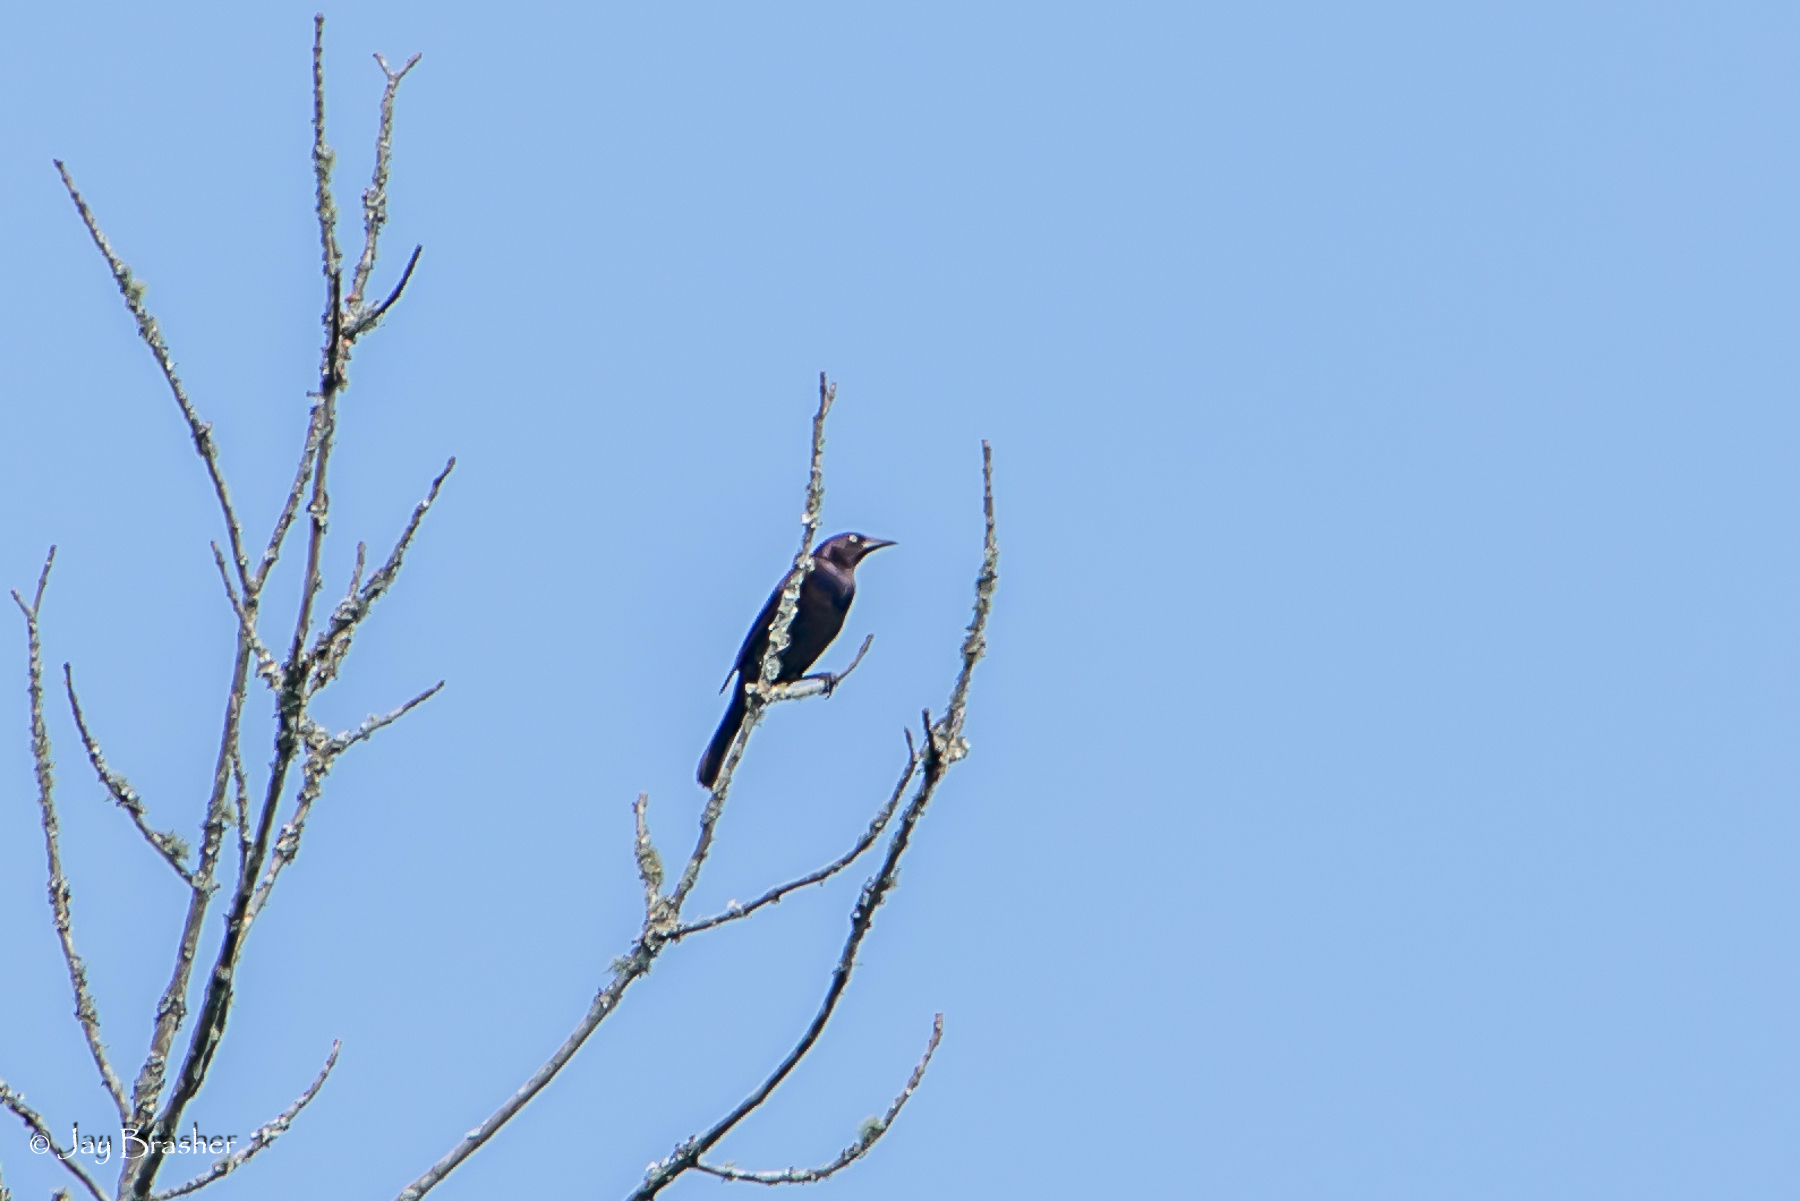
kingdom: Animalia
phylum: Chordata
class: Aves
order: Passeriformes
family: Icteridae
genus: Quiscalus
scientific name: Quiscalus quiscula
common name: Common grackle
